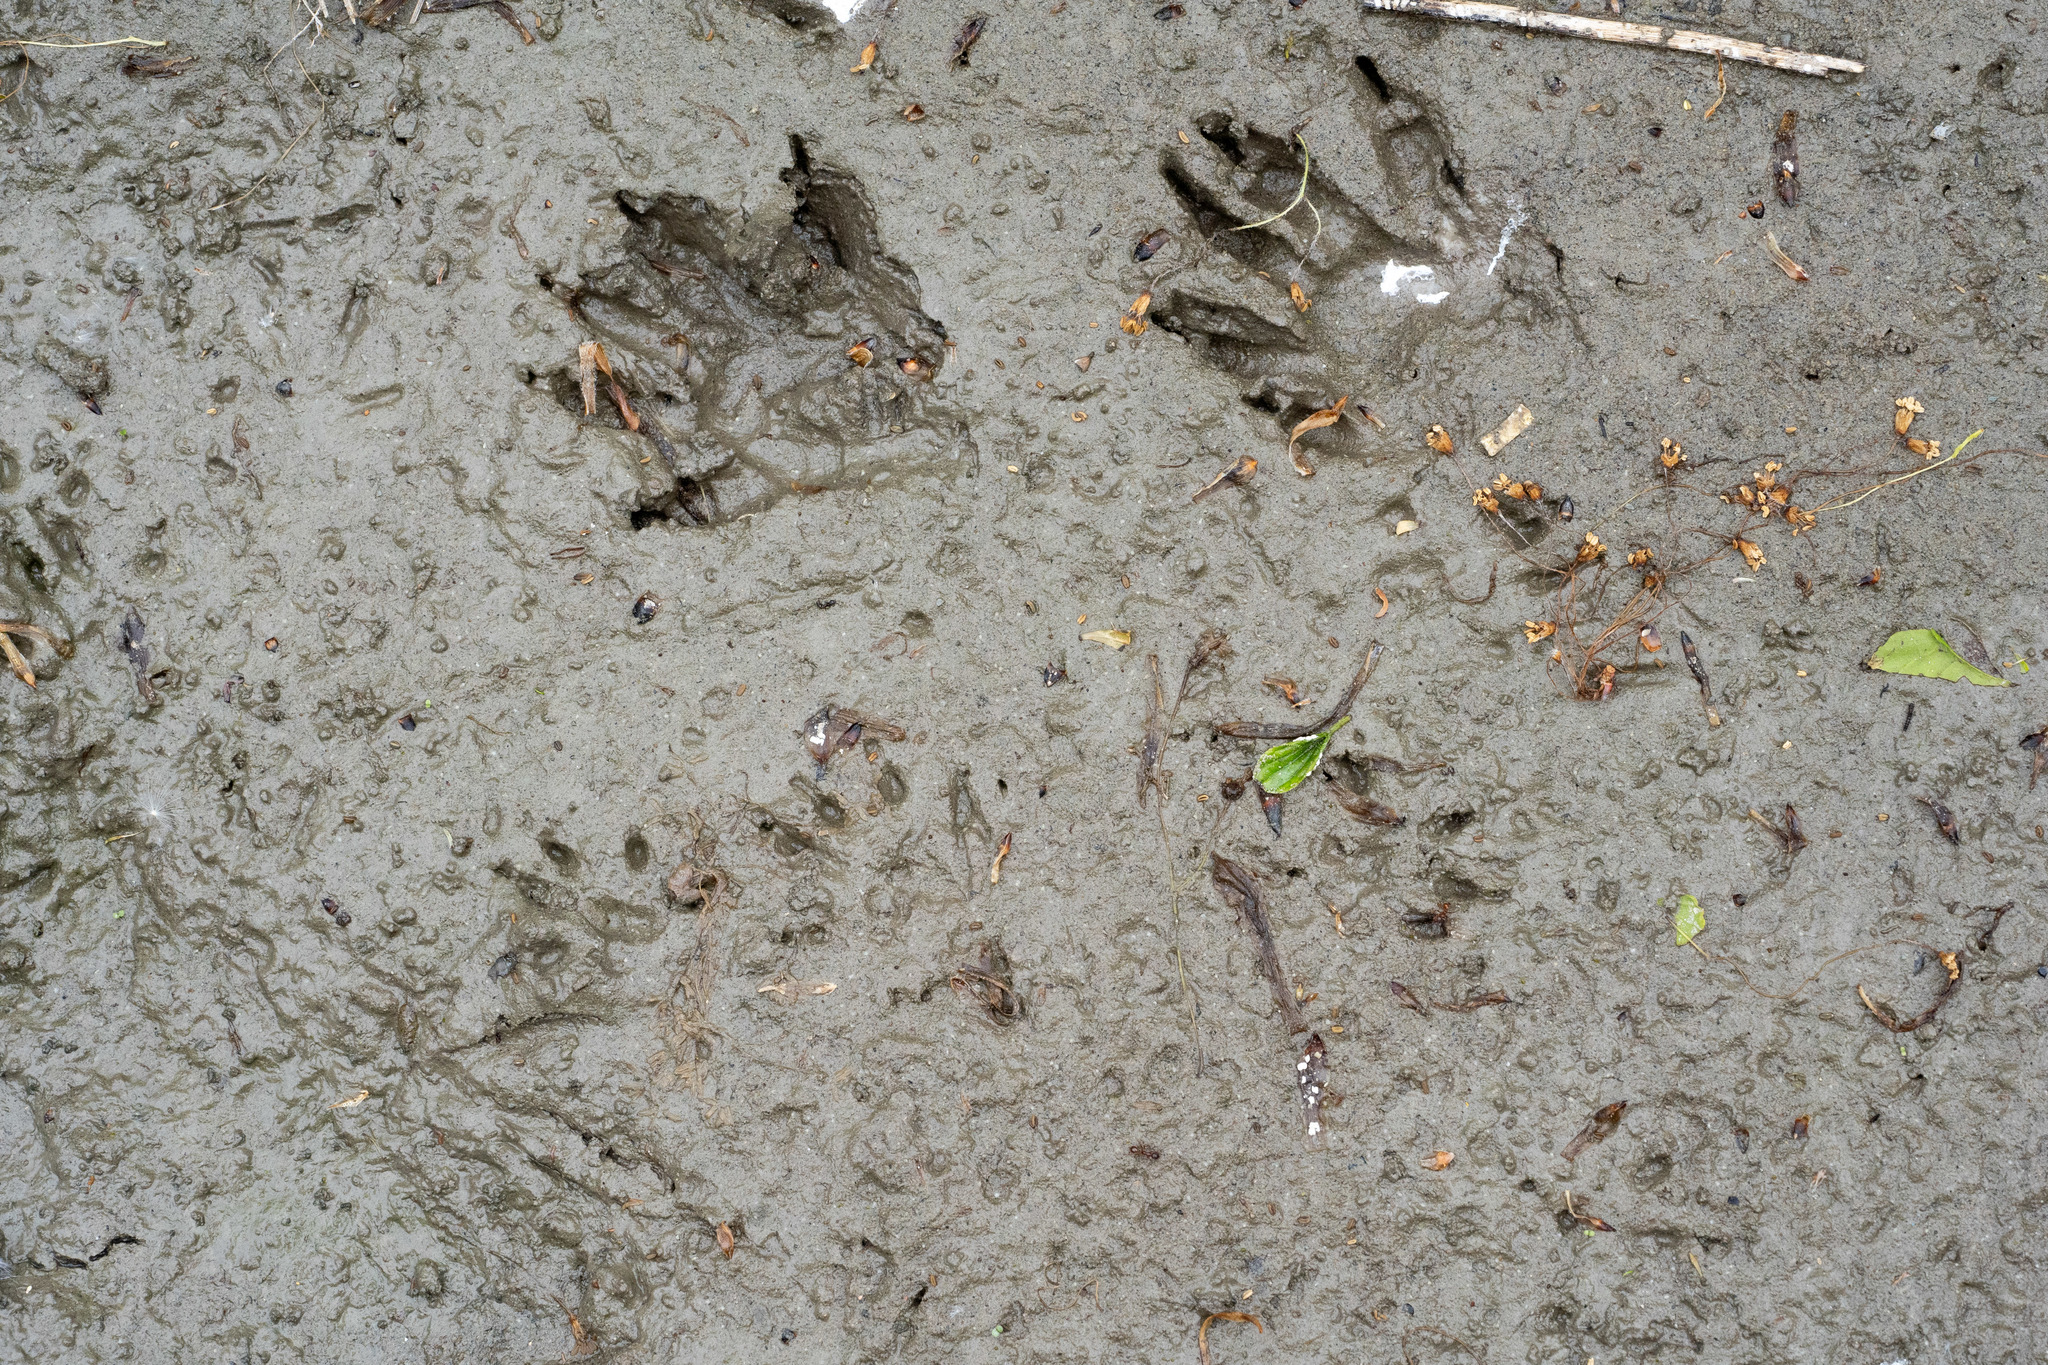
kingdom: Animalia
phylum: Chordata
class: Mammalia
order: Carnivora
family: Procyonidae
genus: Procyon
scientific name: Procyon lotor
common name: Raccoon
